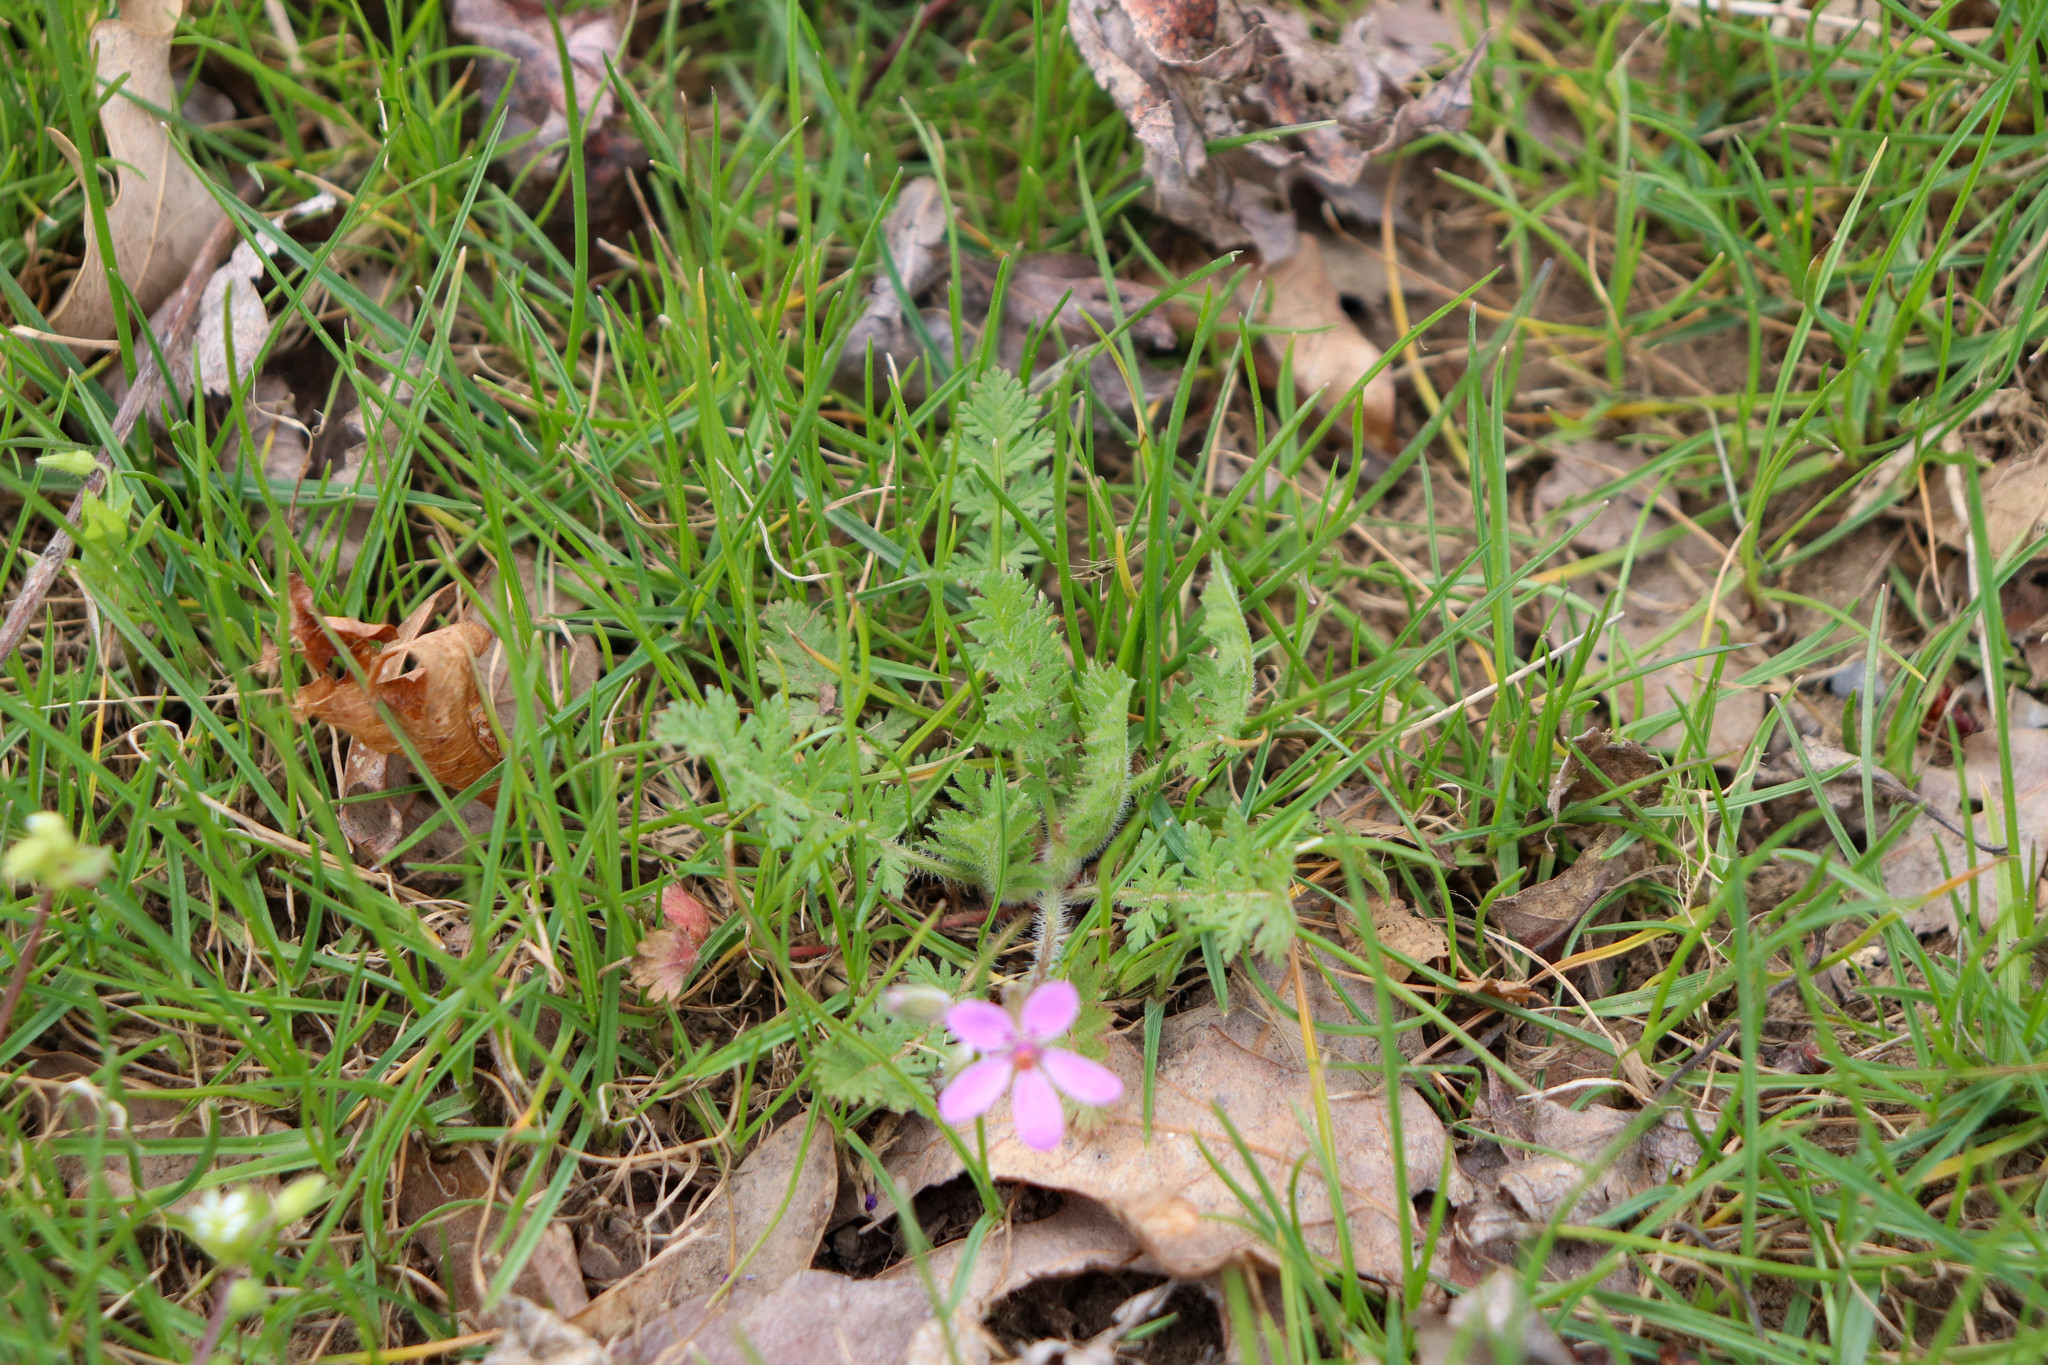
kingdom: Plantae
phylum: Tracheophyta
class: Magnoliopsida
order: Geraniales
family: Geraniaceae
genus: Erodium
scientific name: Erodium cicutarium
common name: Common stork's-bill
